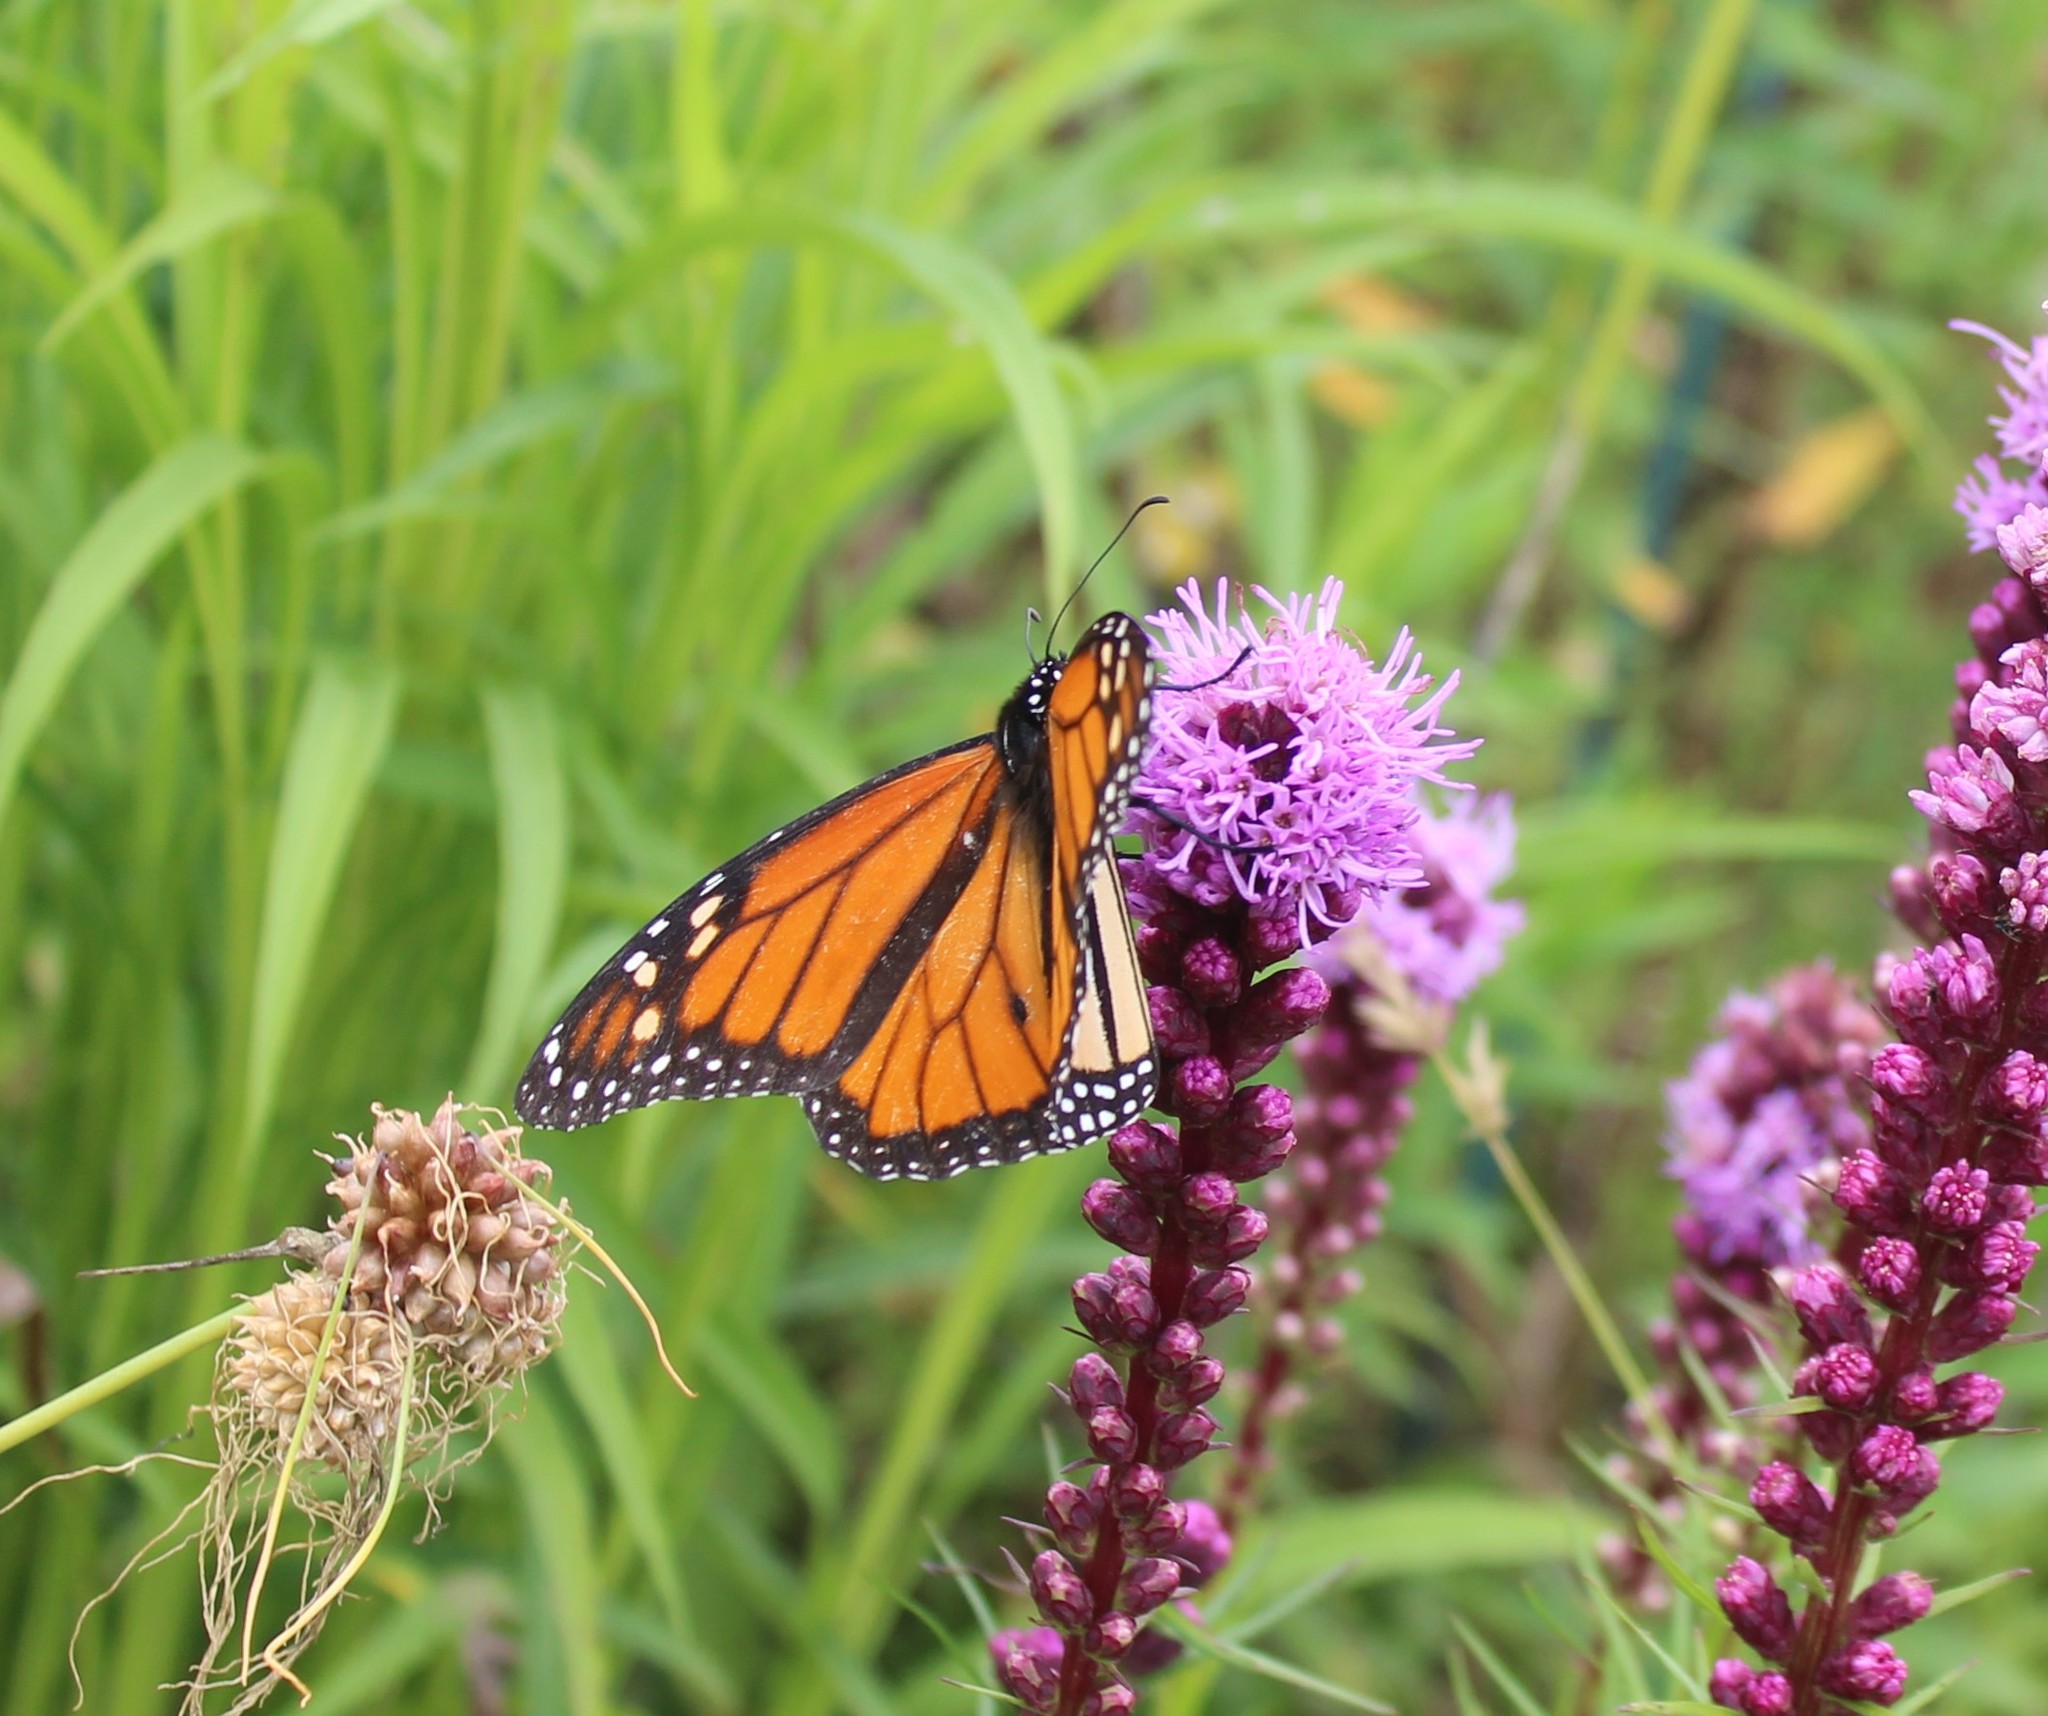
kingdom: Animalia
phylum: Arthropoda
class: Insecta
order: Lepidoptera
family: Nymphalidae
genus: Danaus
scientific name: Danaus plexippus
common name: Monarch
